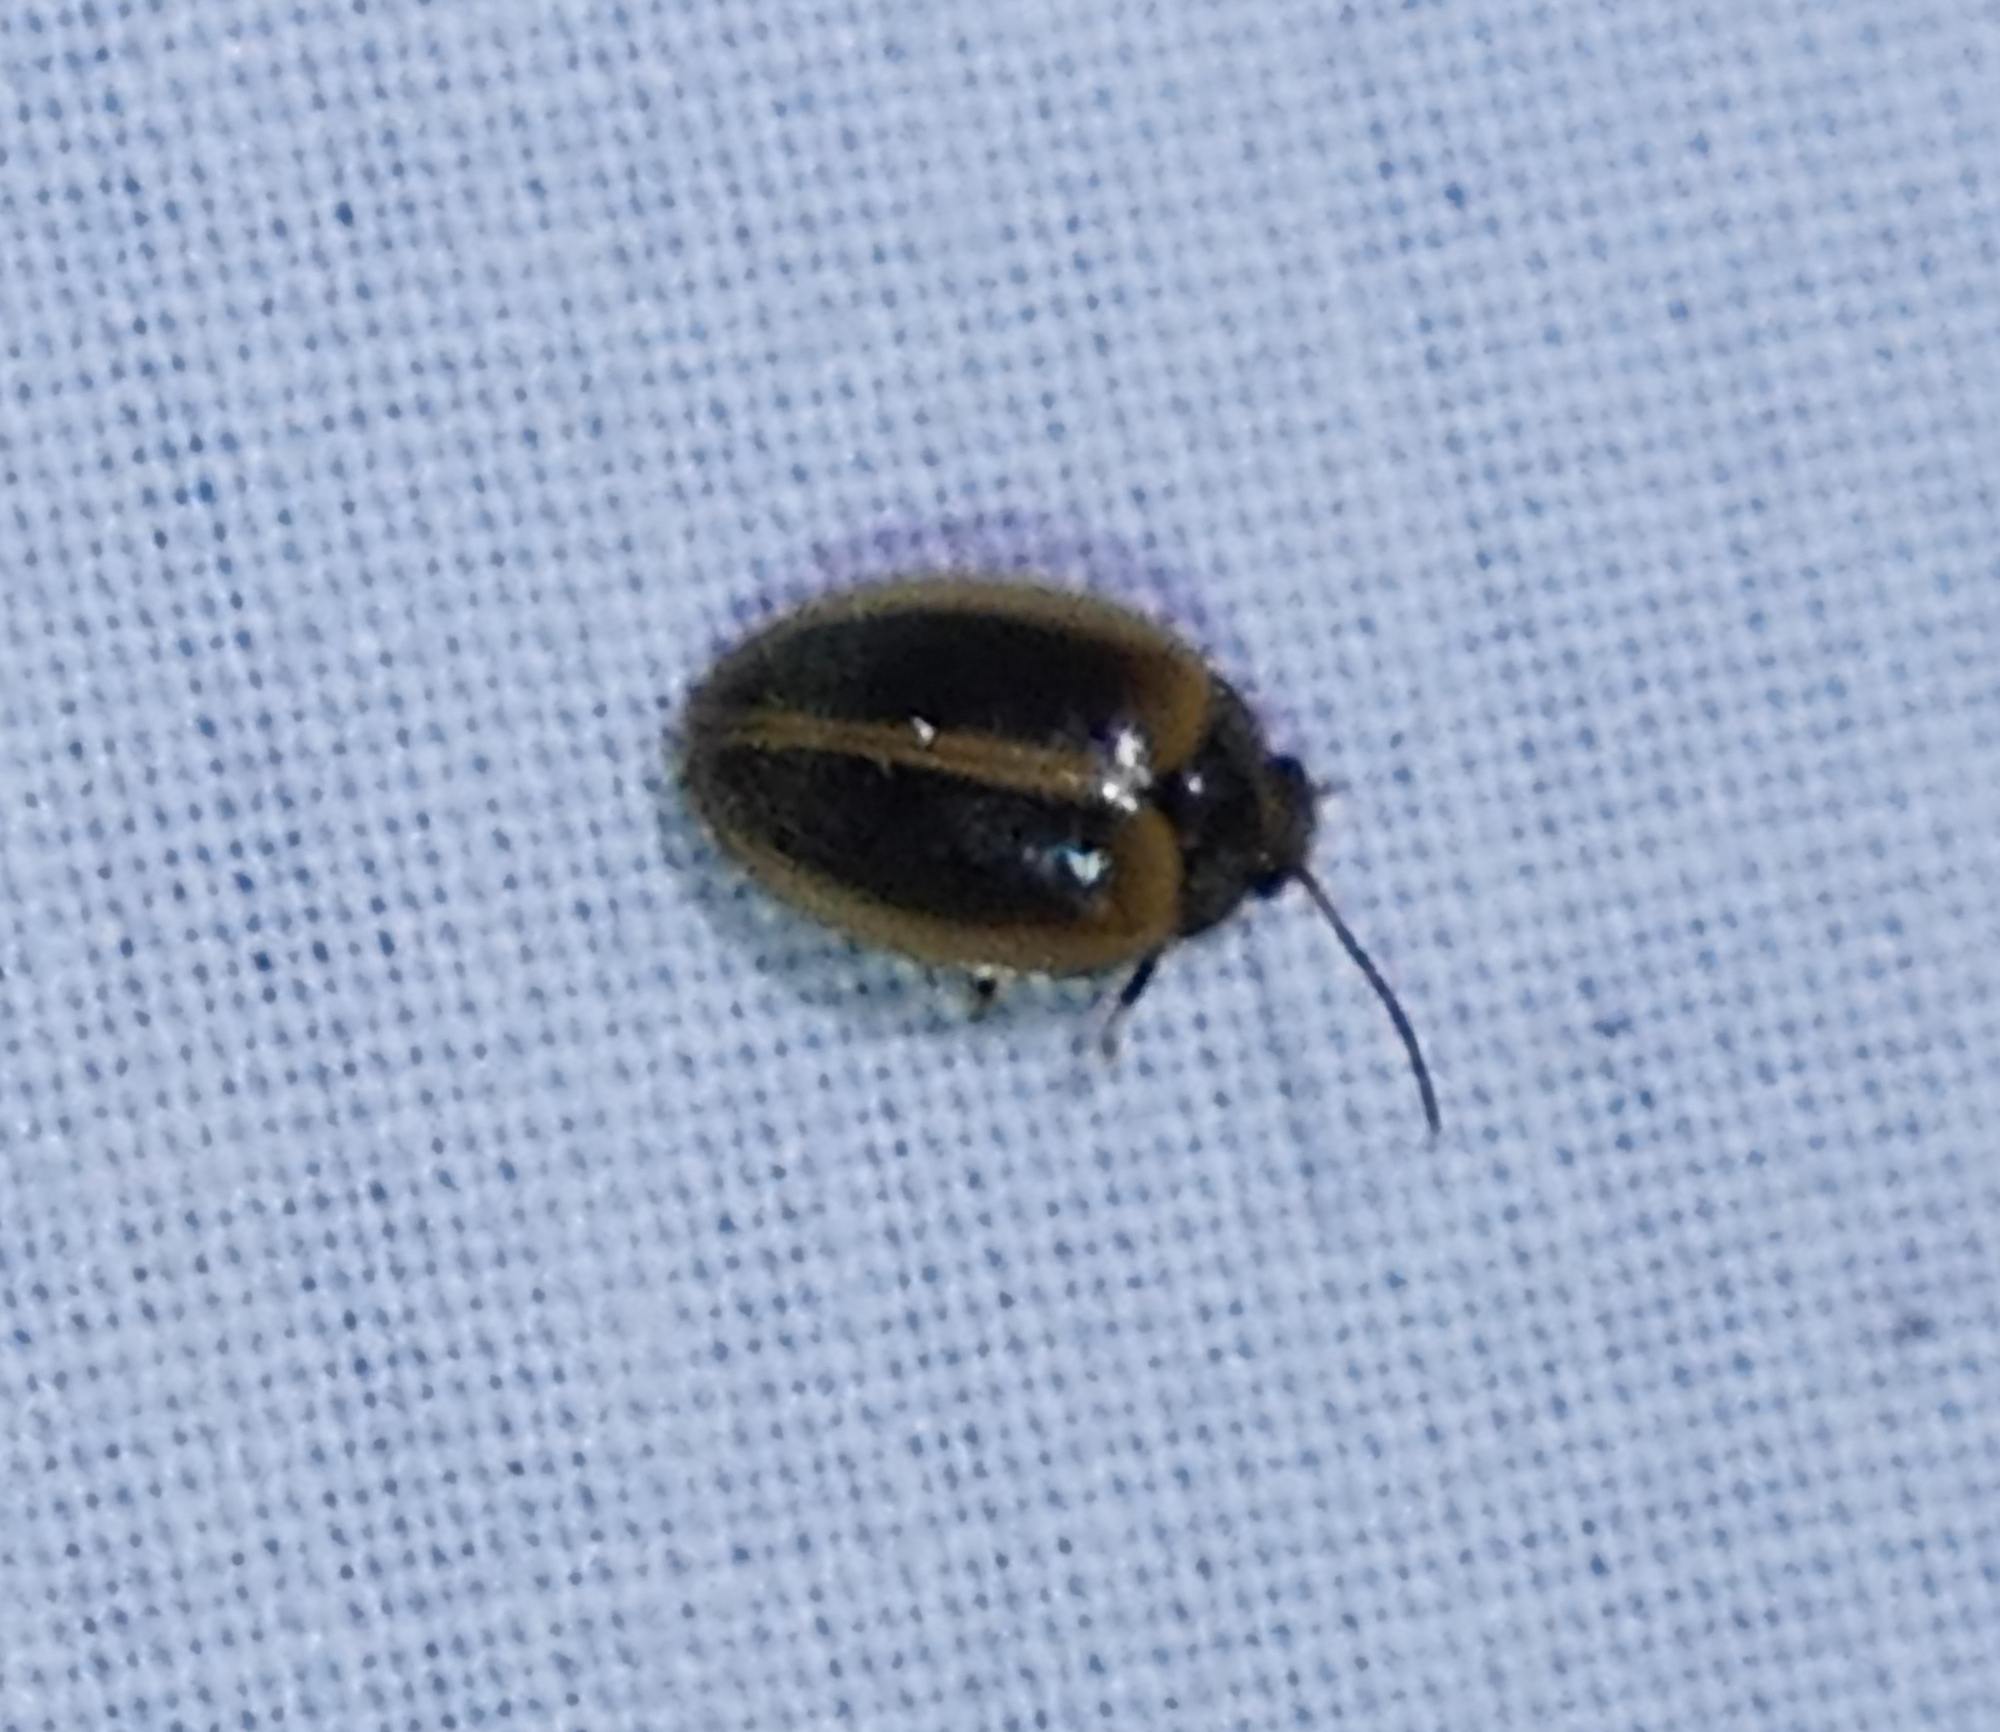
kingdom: Animalia
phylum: Arthropoda
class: Insecta
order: Coleoptera
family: Scirtidae
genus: Ora
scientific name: Ora discoidea
